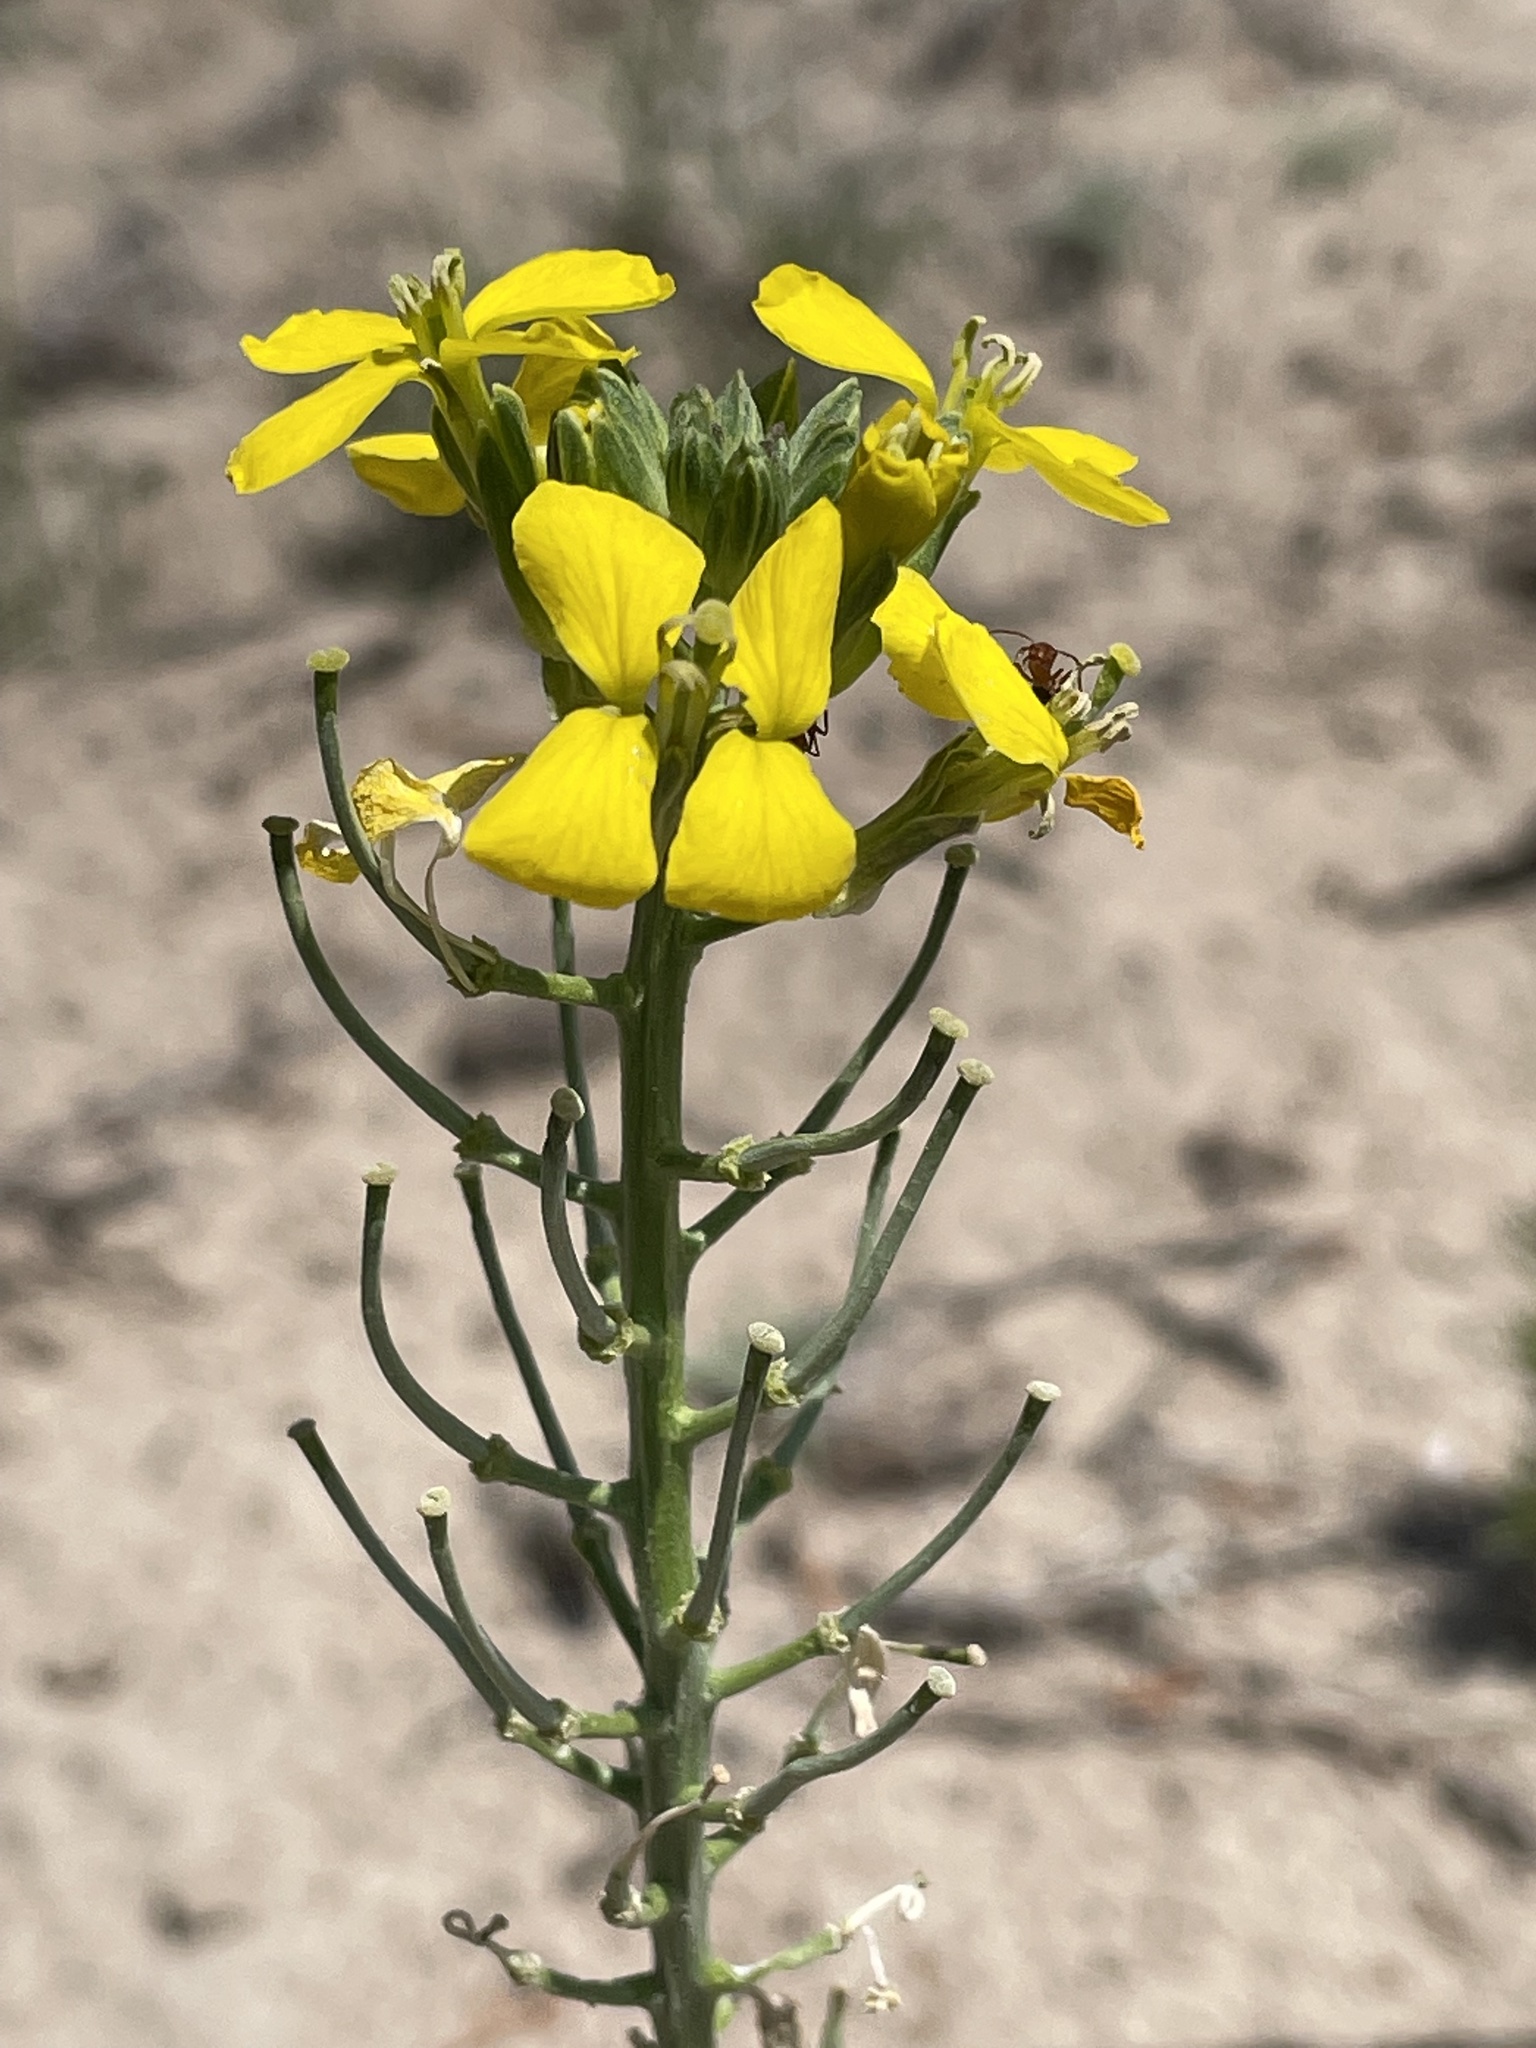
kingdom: Plantae
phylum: Tracheophyta
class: Magnoliopsida
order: Brassicales
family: Brassicaceae
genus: Erysimum
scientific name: Erysimum capitatum
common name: Western wallflower
